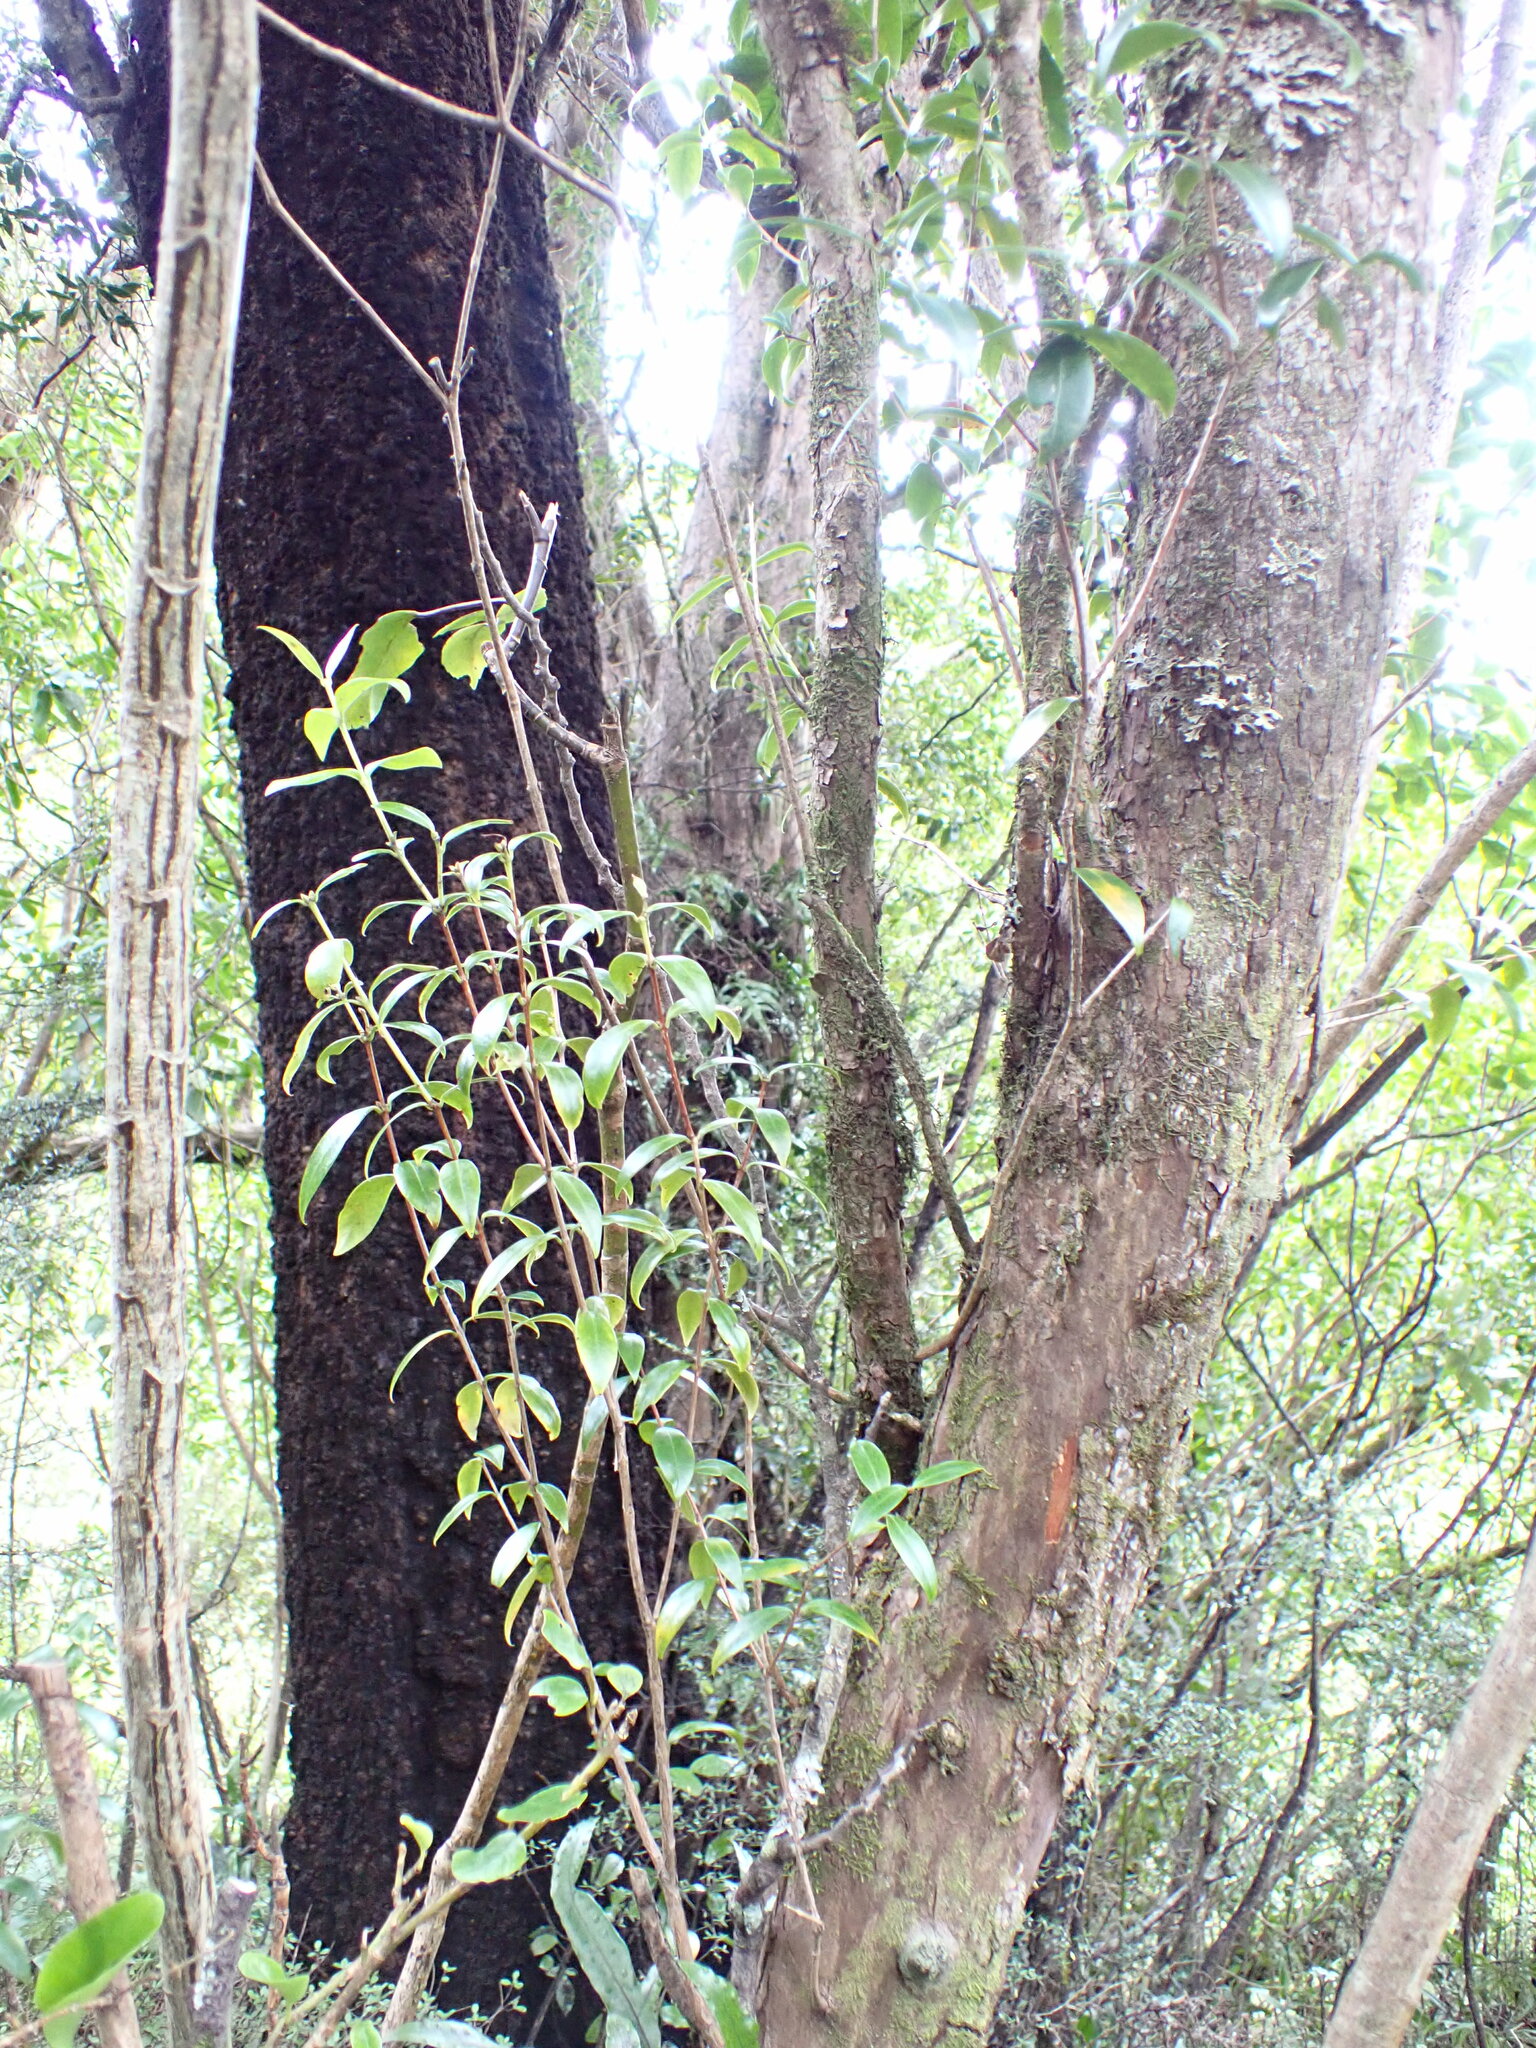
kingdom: Plantae
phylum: Tracheophyta
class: Magnoliopsida
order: Myrtales
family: Myrtaceae
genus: Metrosideros
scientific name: Metrosideros umbellata
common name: Southern rata
